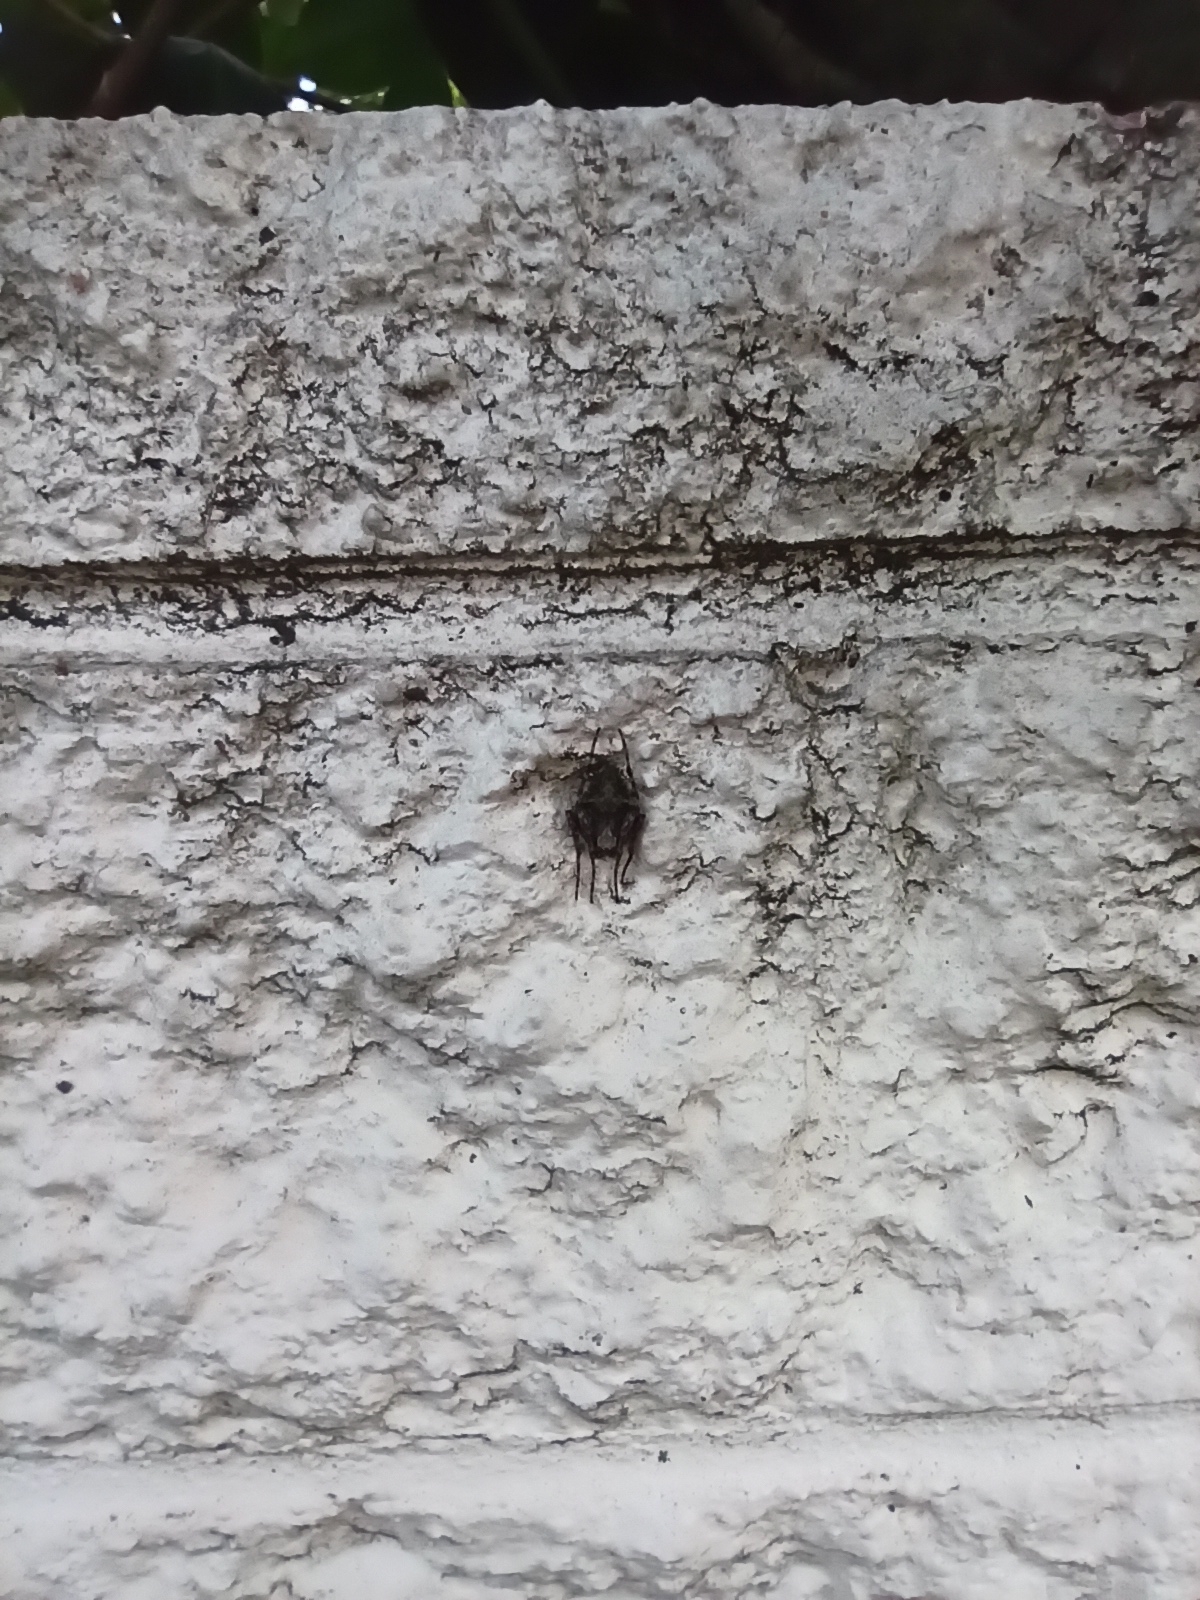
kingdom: Animalia
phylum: Arthropoda
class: Arachnida
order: Araneae
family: Araneidae
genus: Eriophora
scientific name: Eriophora pustulosa
